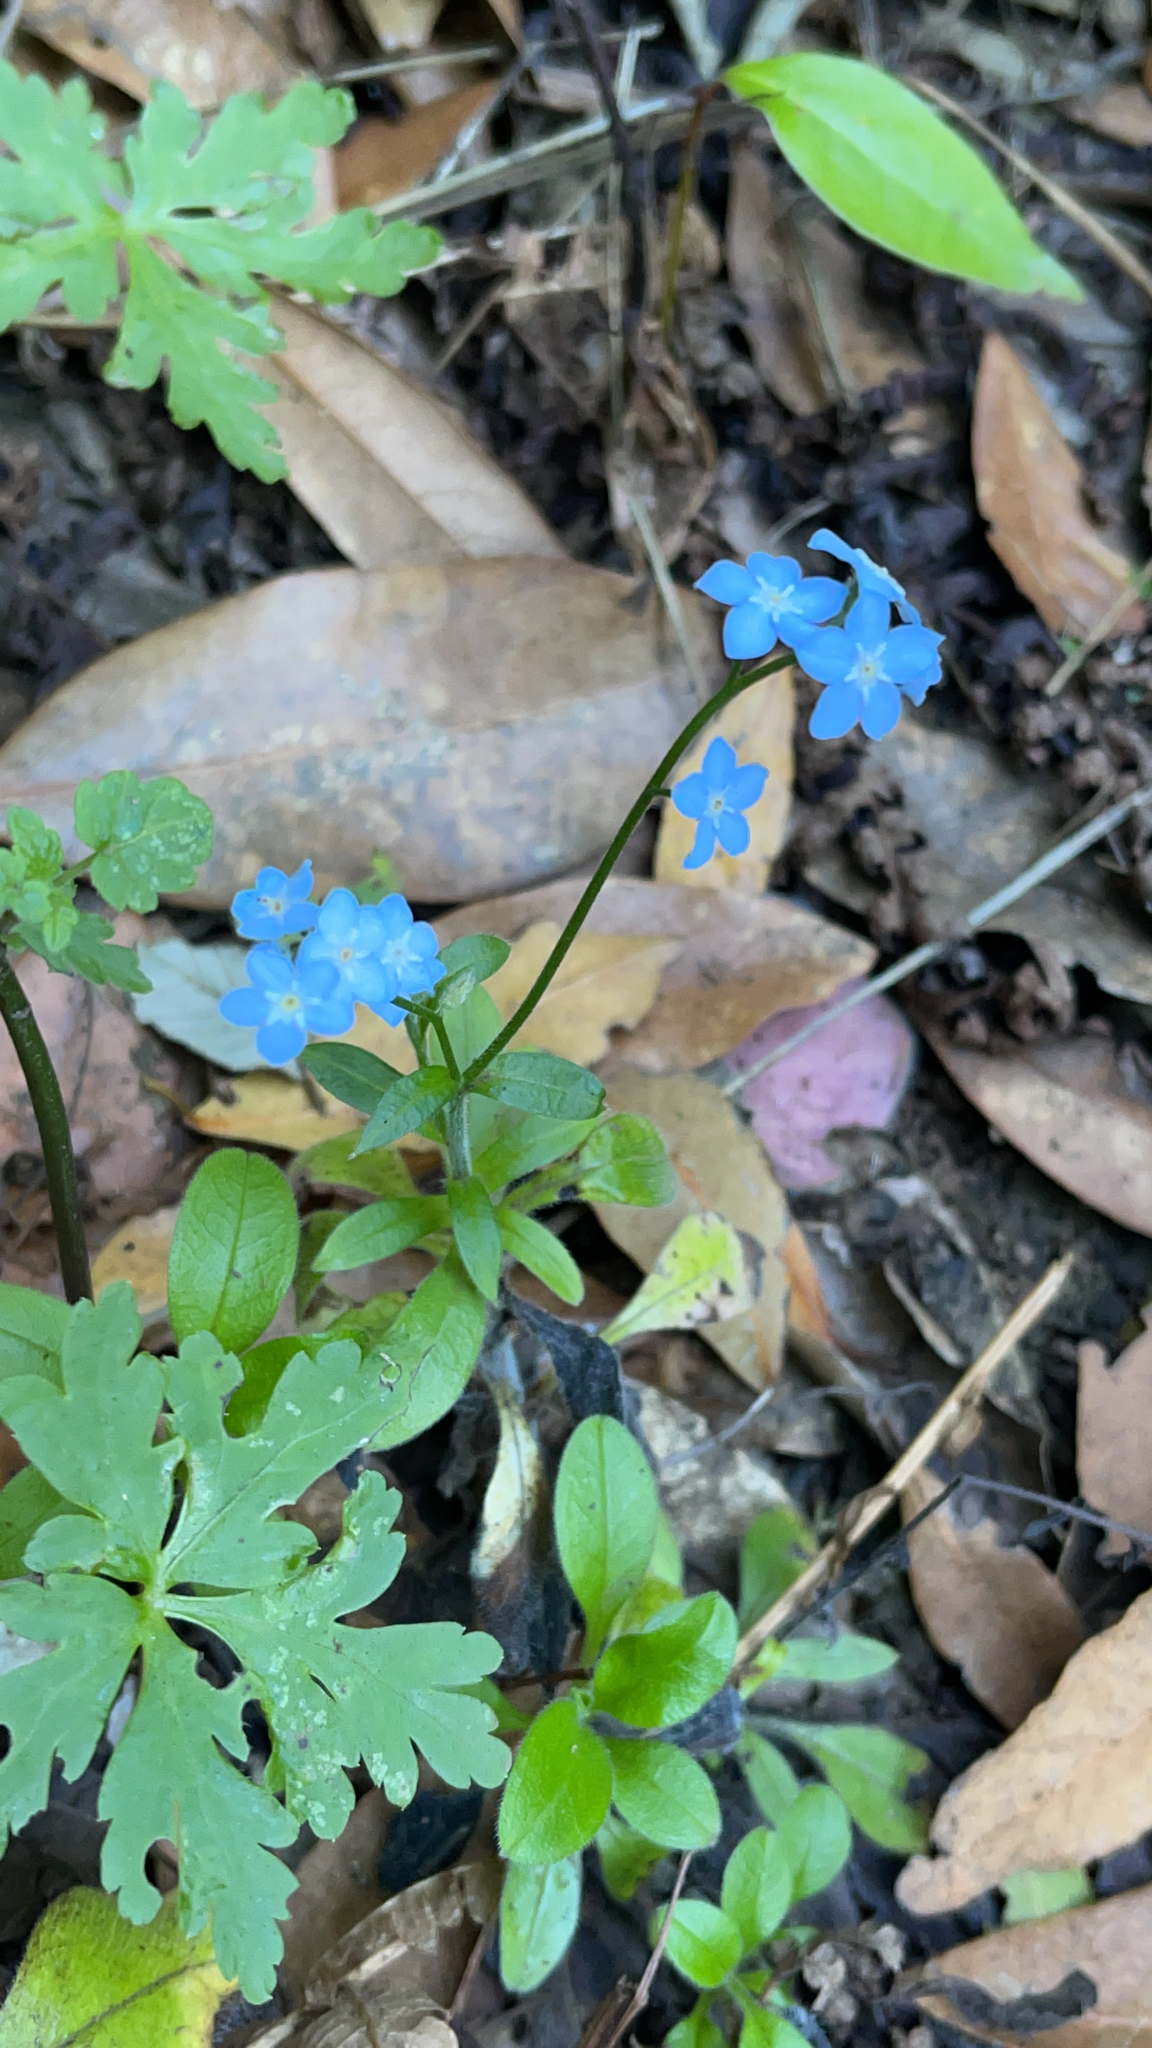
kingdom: Plantae
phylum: Tracheophyta
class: Magnoliopsida
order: Boraginales
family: Boraginaceae
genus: Myosotis
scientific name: Myosotis latifolia
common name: Broadleaf forget-me-not
